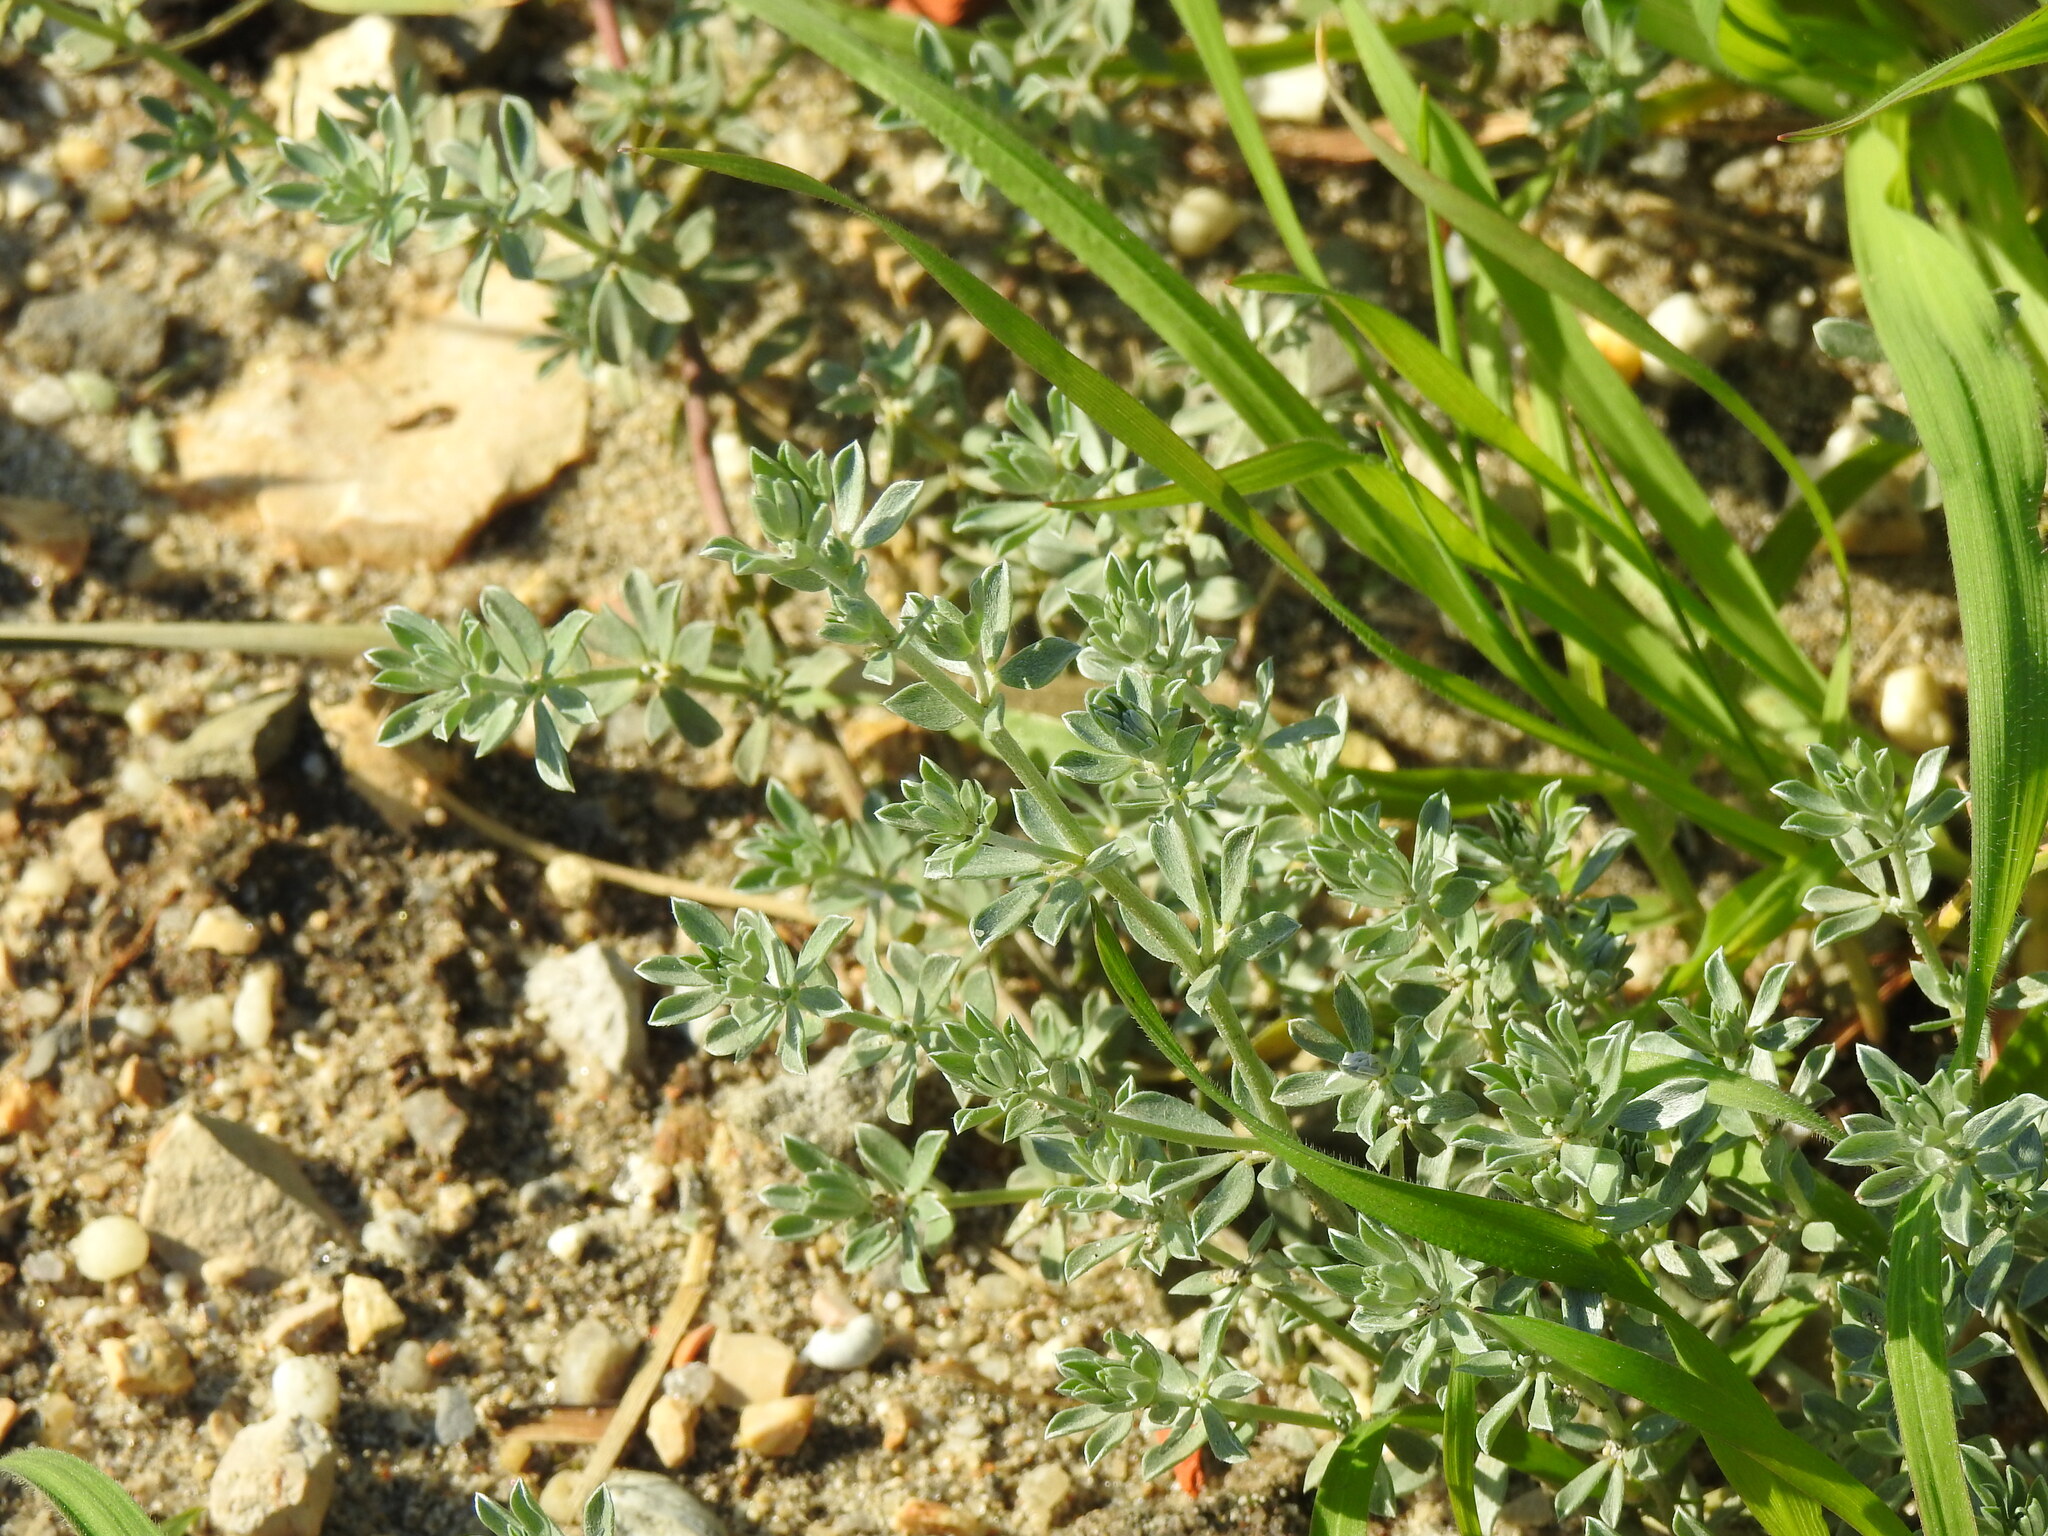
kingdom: Plantae
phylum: Tracheophyta
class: Magnoliopsida
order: Fabales
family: Fabaceae
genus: Lotus
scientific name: Lotus creticus
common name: Cretan bird's-foot trefoil
